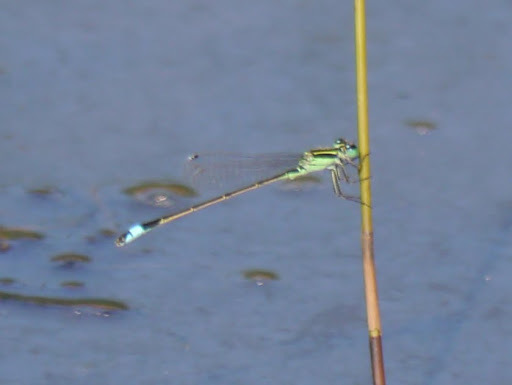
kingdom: Animalia
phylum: Arthropoda
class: Insecta
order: Odonata
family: Coenagrionidae
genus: Ischnura
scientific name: Ischnura ramburii
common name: Rambur's forktail
